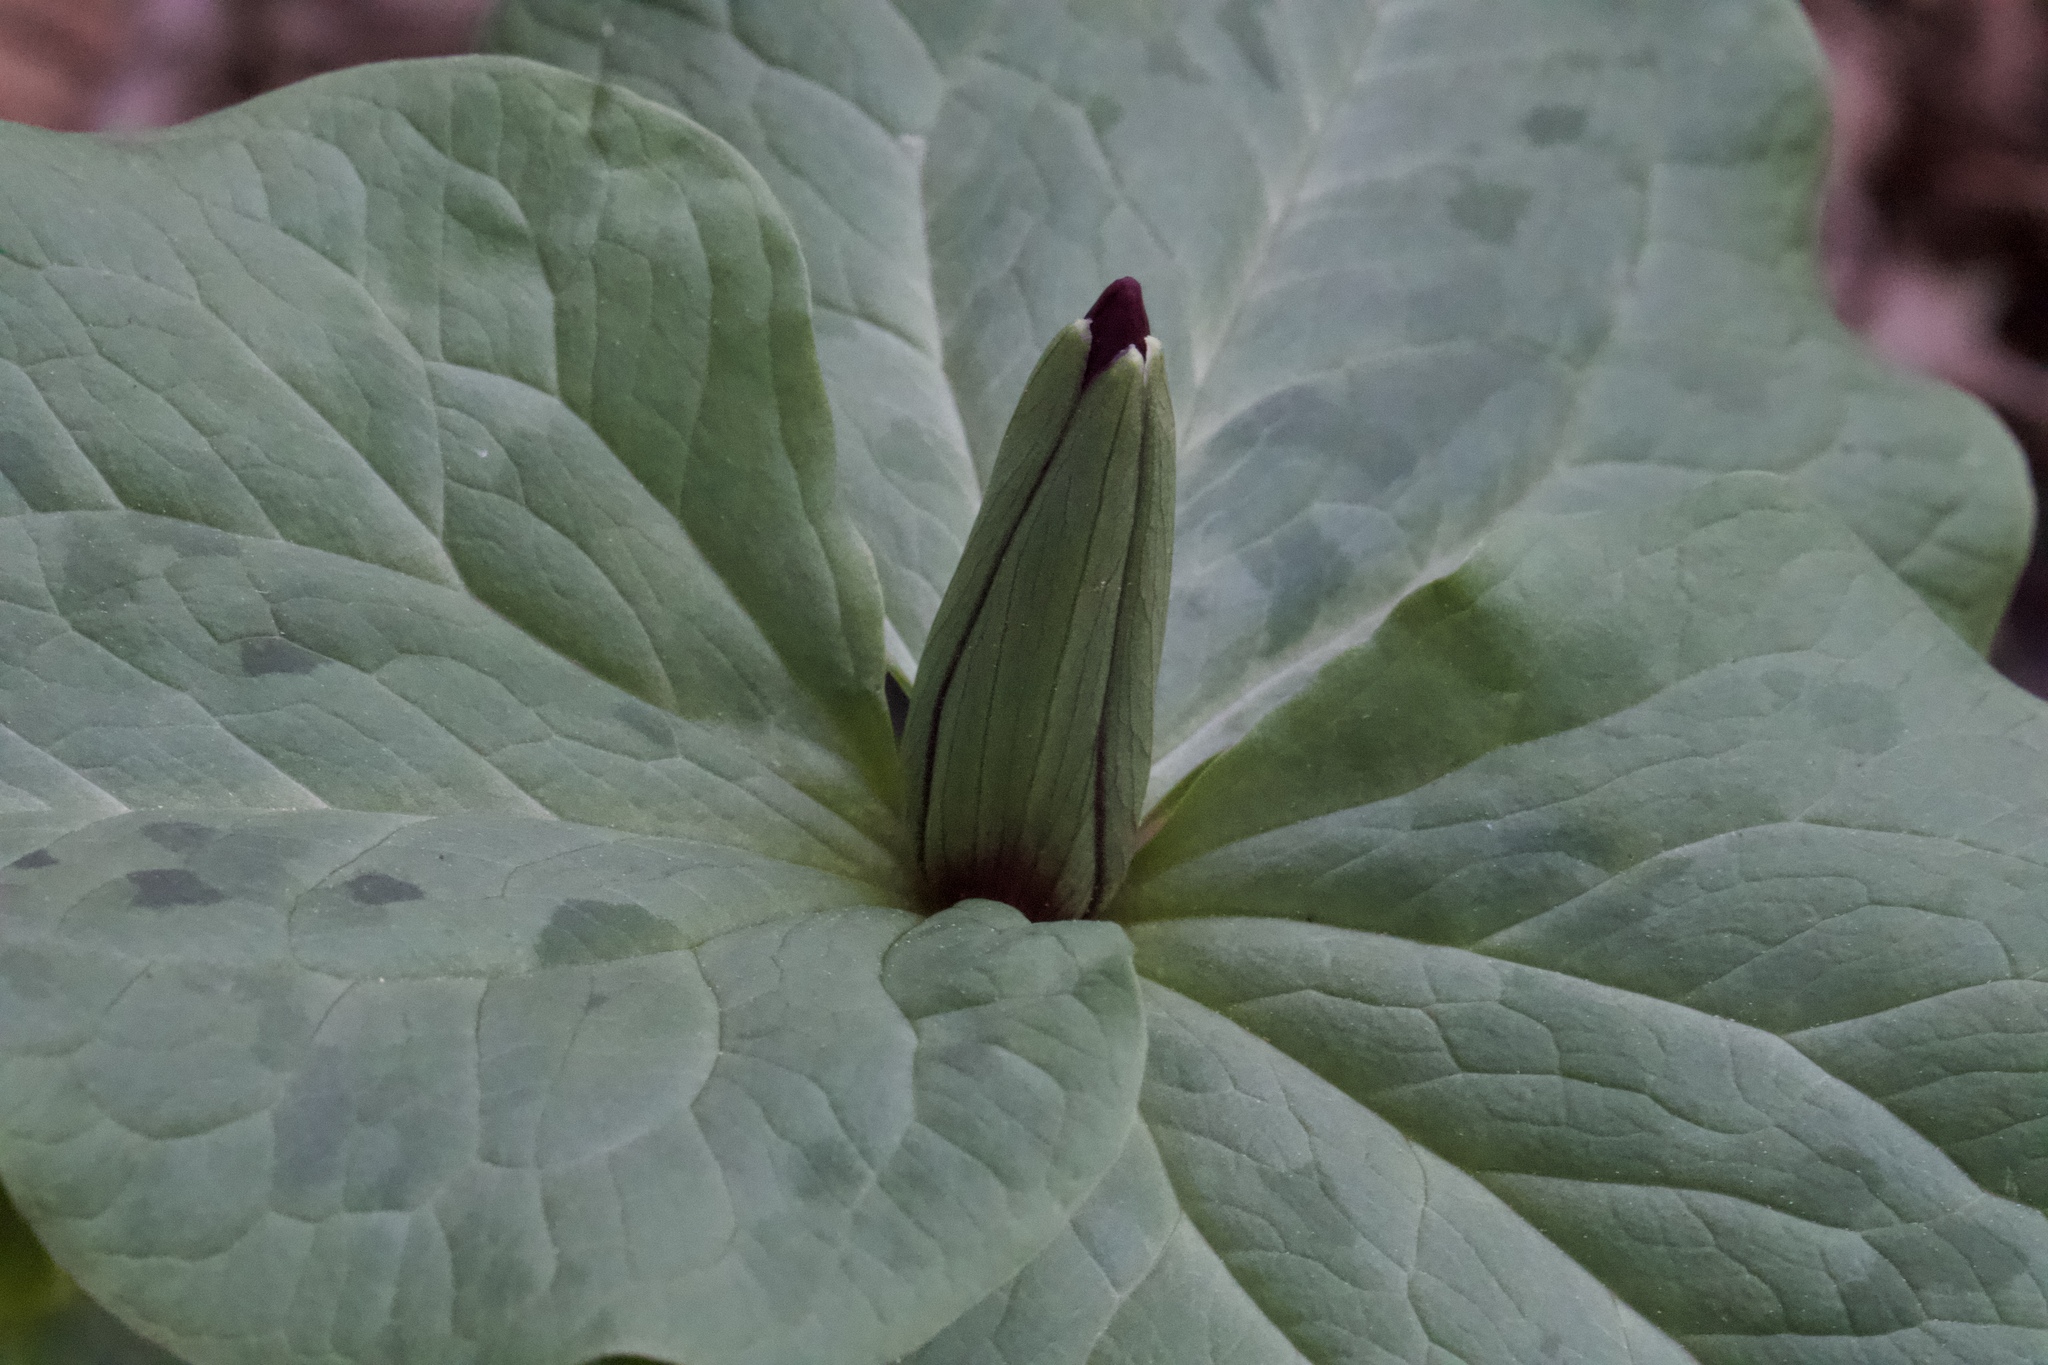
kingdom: Plantae
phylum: Tracheophyta
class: Liliopsida
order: Liliales
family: Melanthiaceae
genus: Trillium
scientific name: Trillium chloropetalum
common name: Giant trillium
